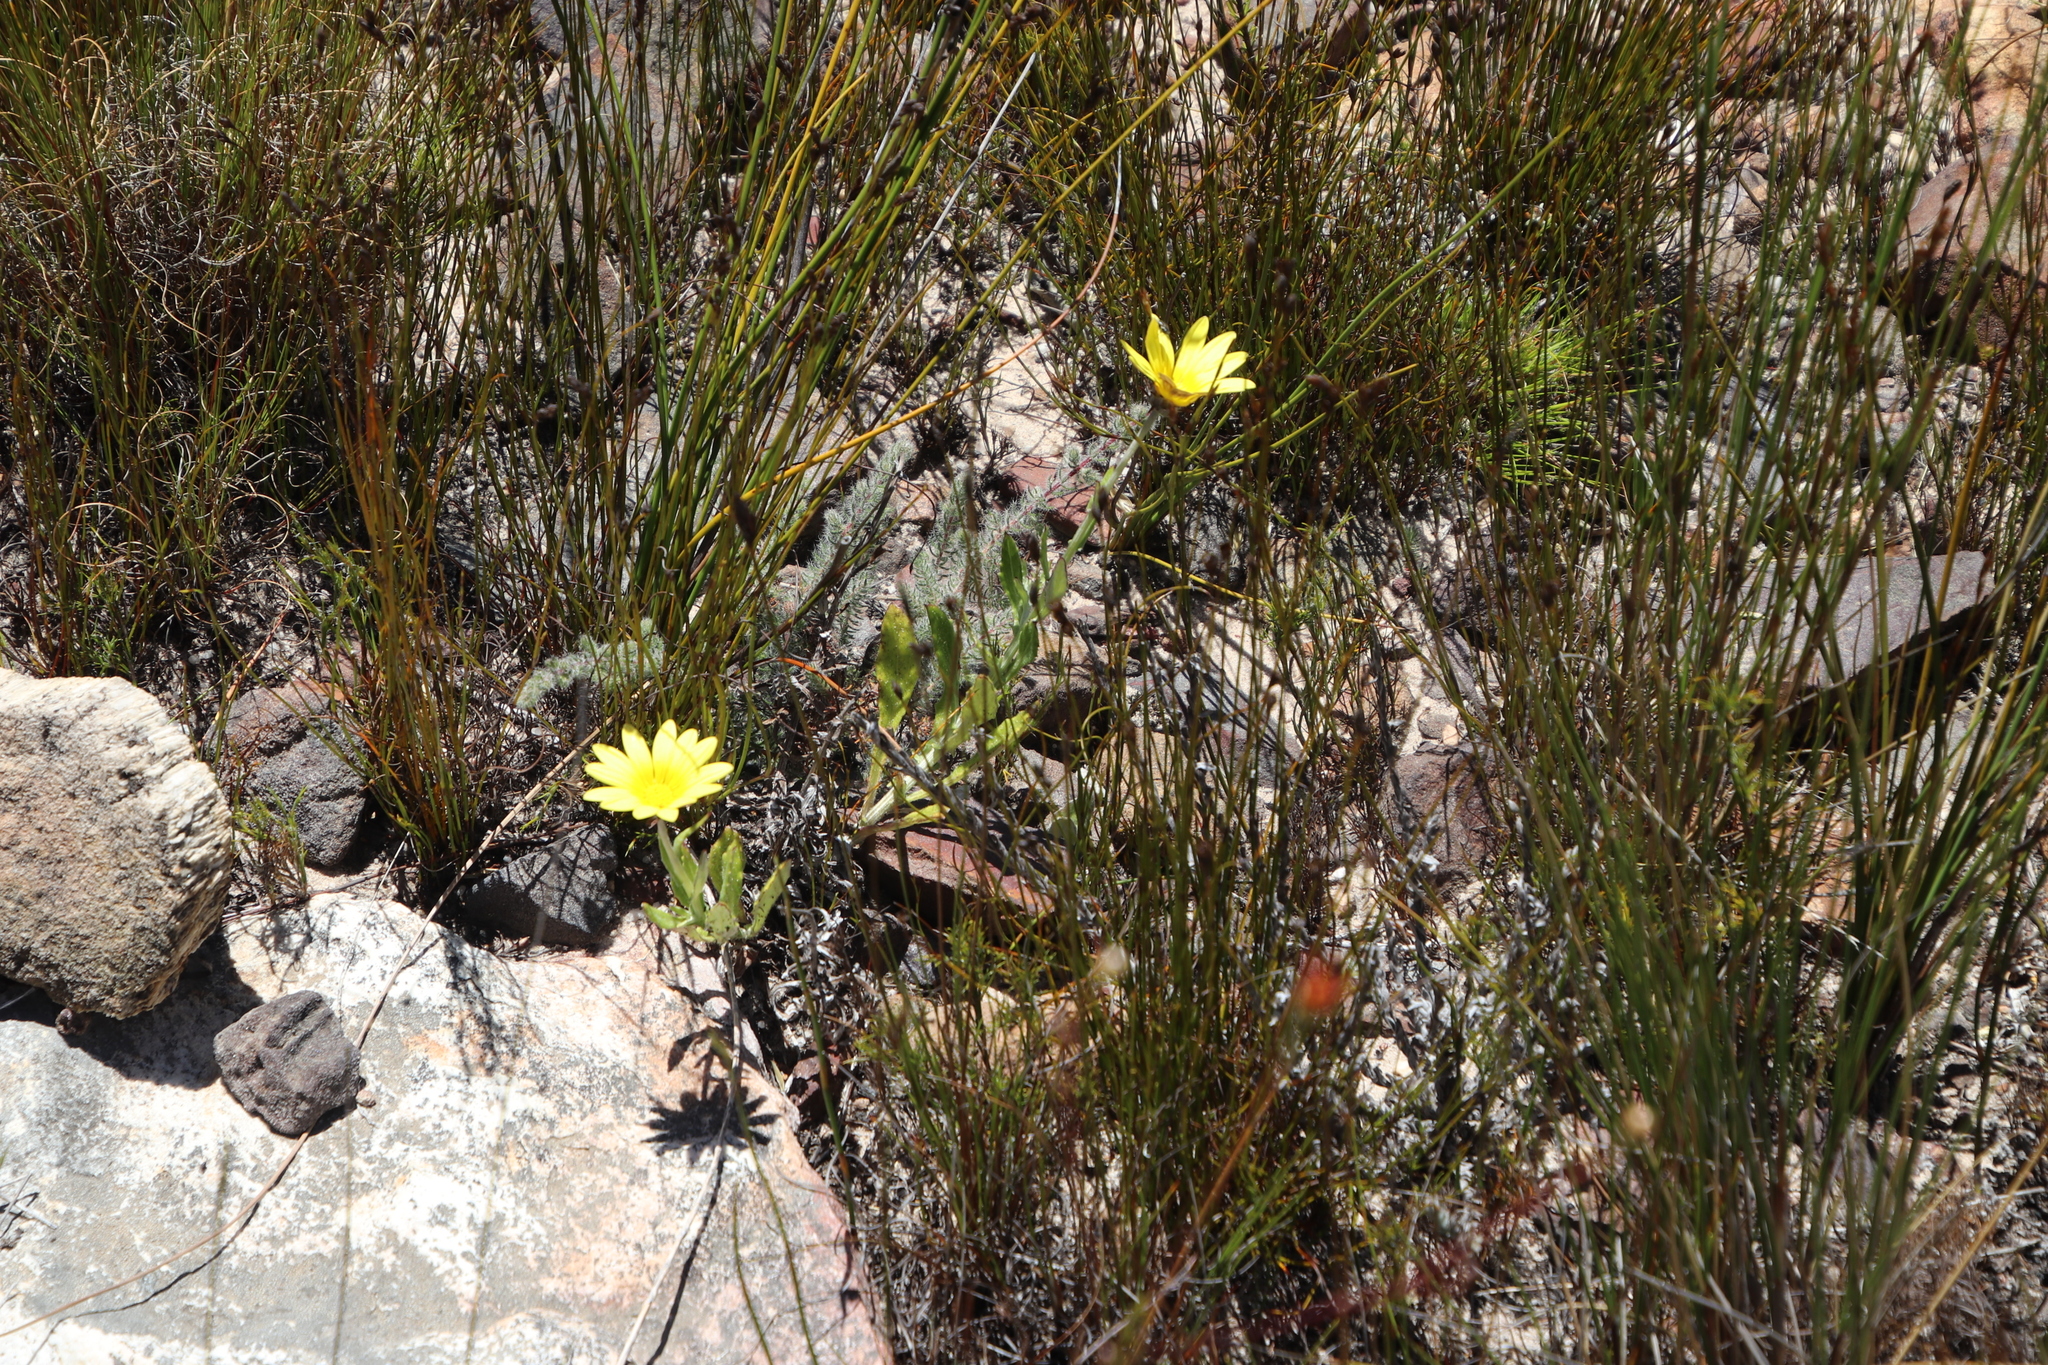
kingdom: Plantae
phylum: Tracheophyta
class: Magnoliopsida
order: Asterales
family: Asteraceae
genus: Arctotis
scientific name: Arctotis scabra
